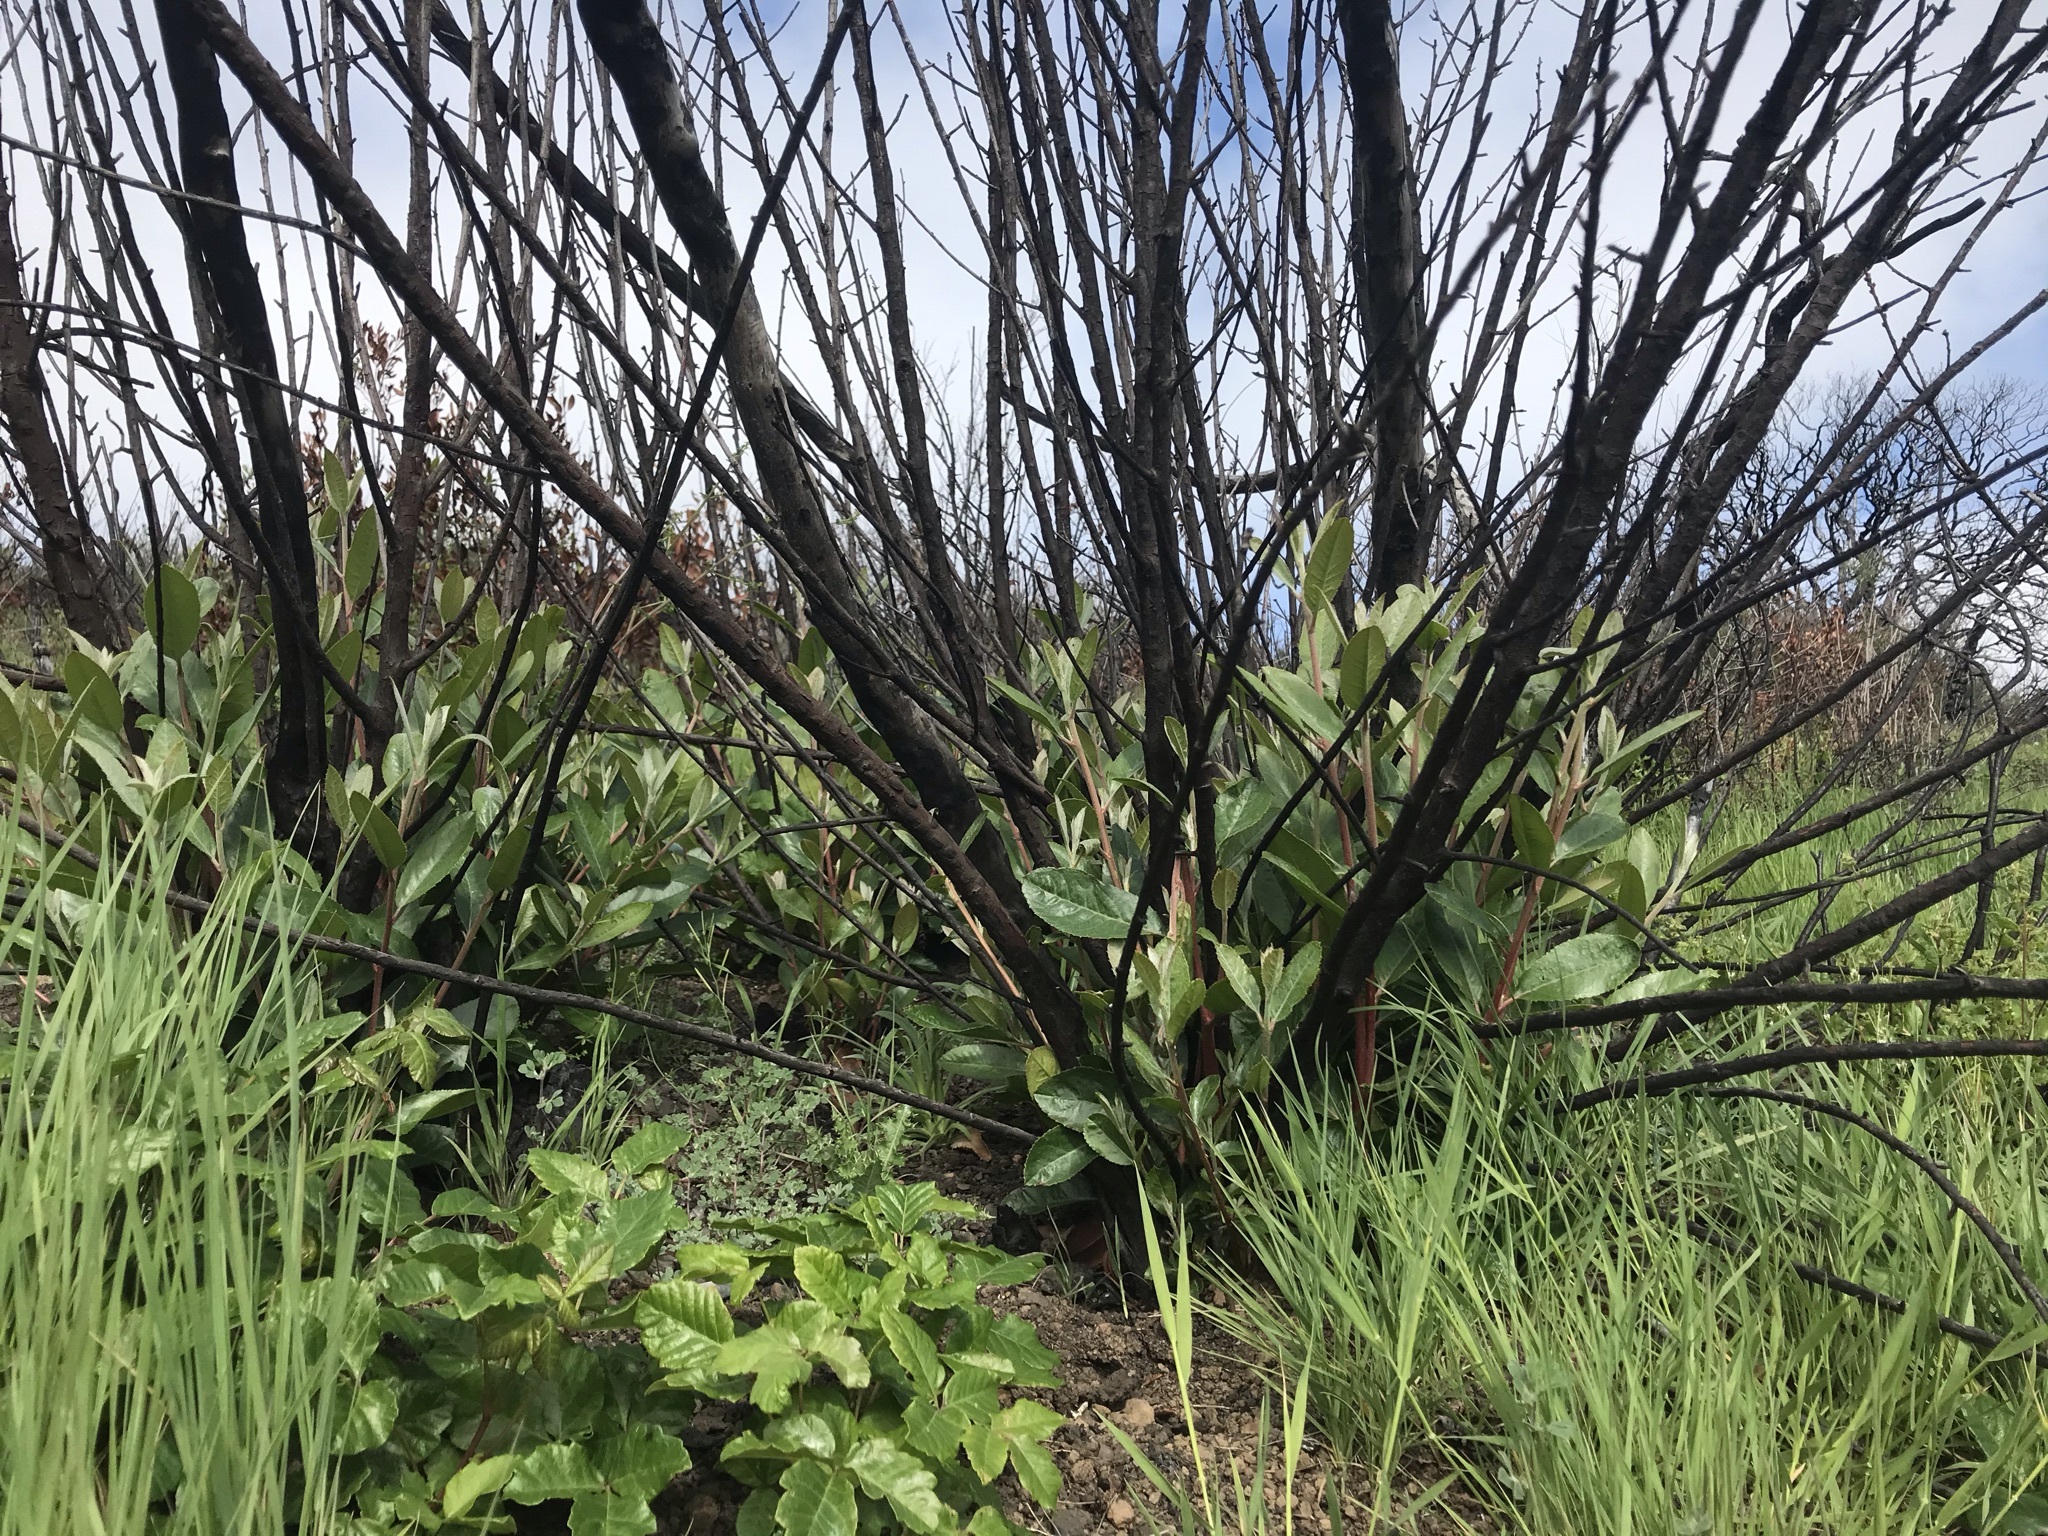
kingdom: Plantae
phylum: Tracheophyta
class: Magnoliopsida
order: Rosales
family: Rosaceae
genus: Heteromeles
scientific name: Heteromeles arbutifolia
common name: California-holly
